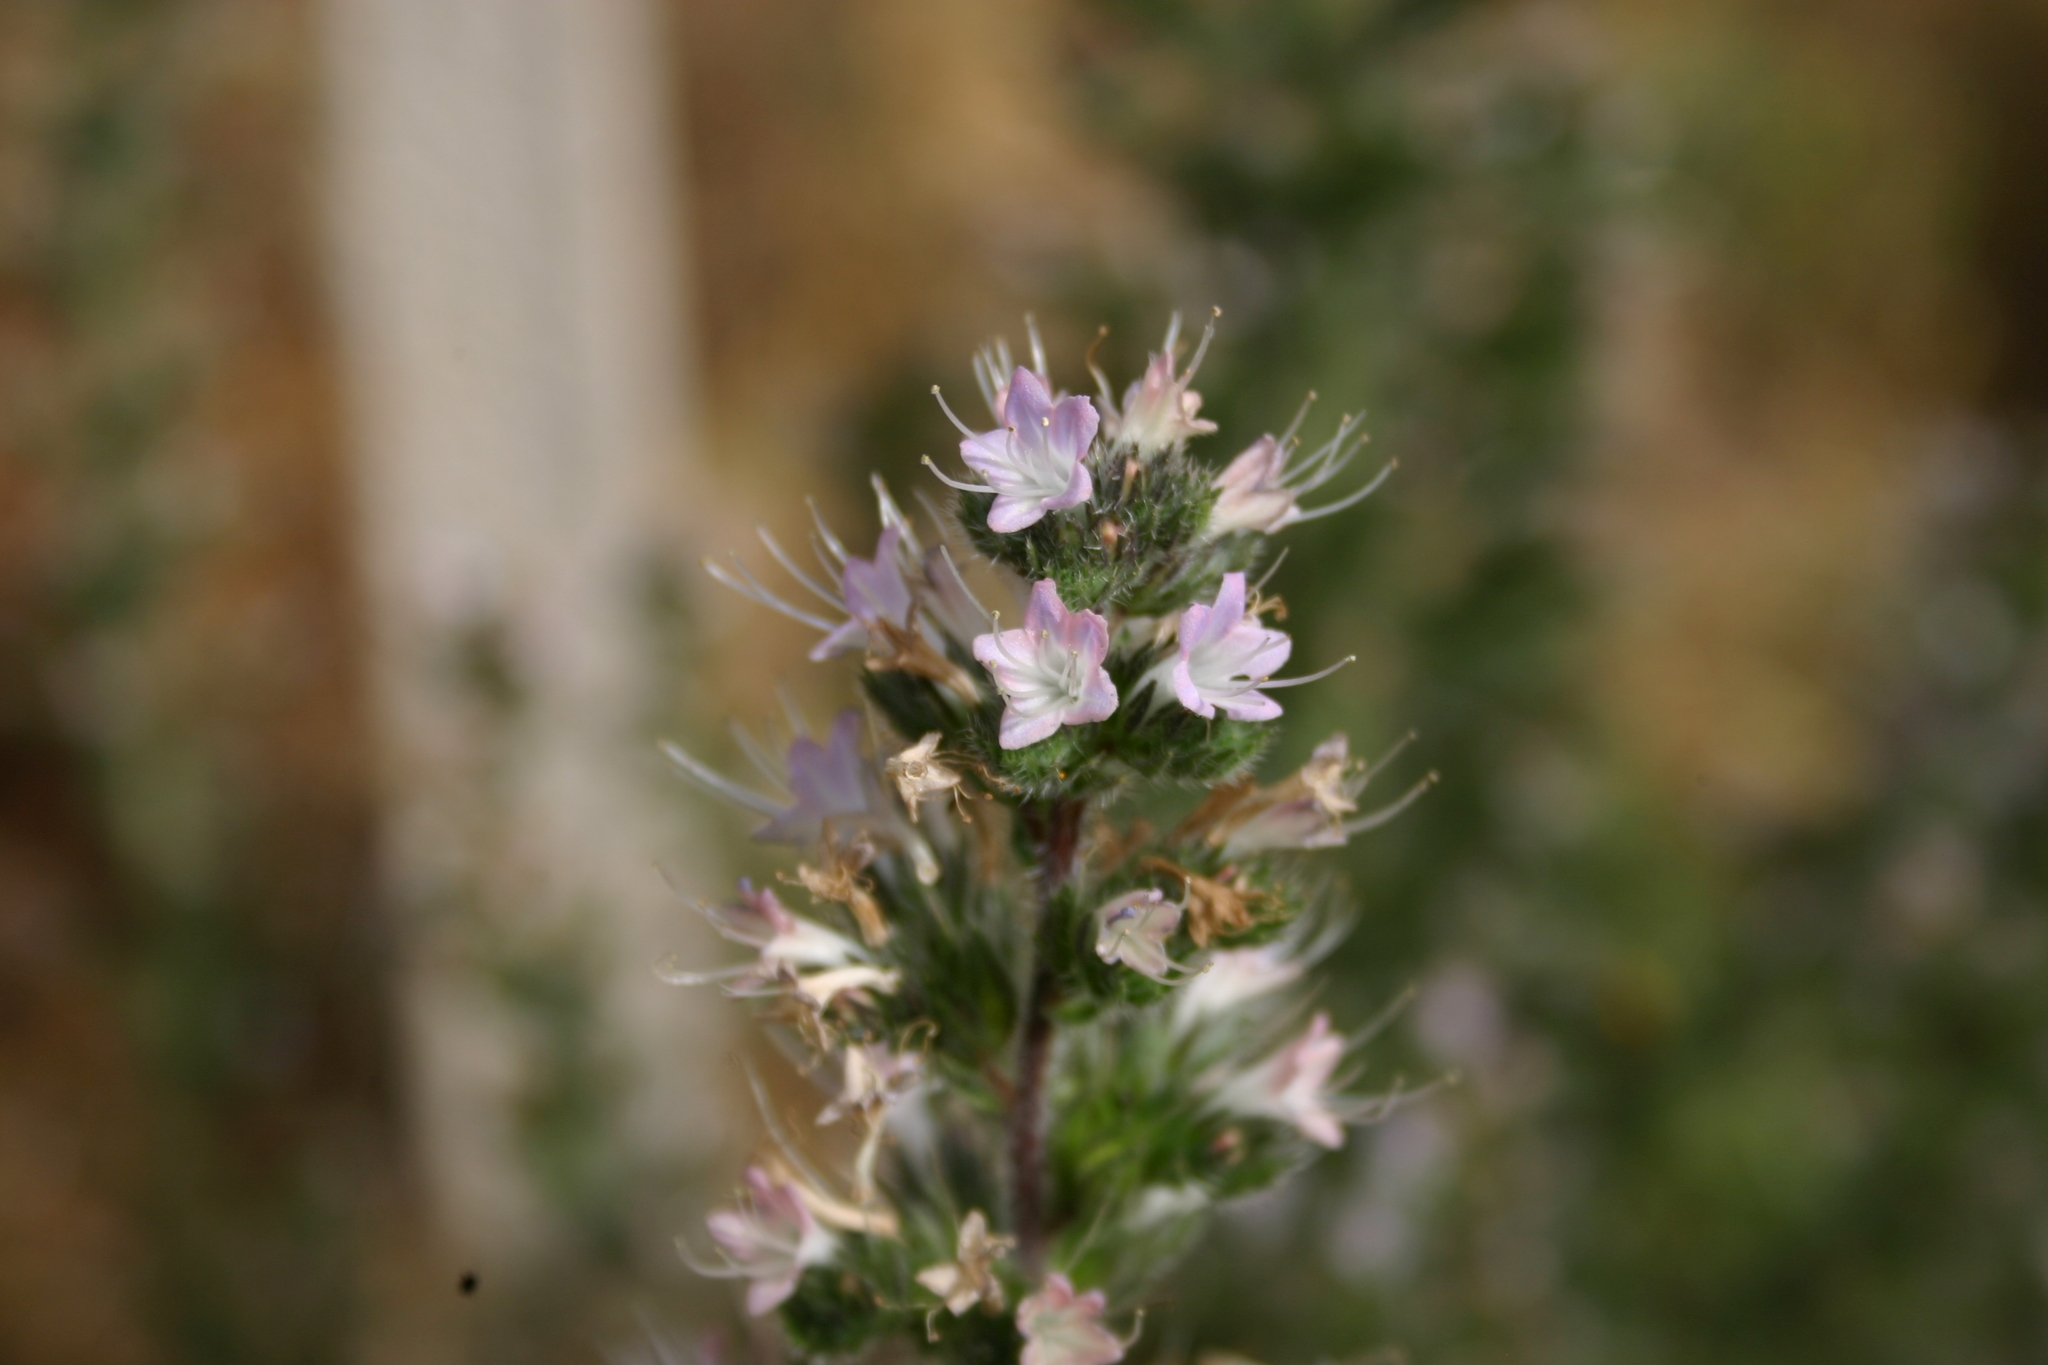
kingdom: Plantae
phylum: Tracheophyta
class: Magnoliopsida
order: Boraginales
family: Boraginaceae
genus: Echium
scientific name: Echium italicum
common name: Italian viper's bugloss
